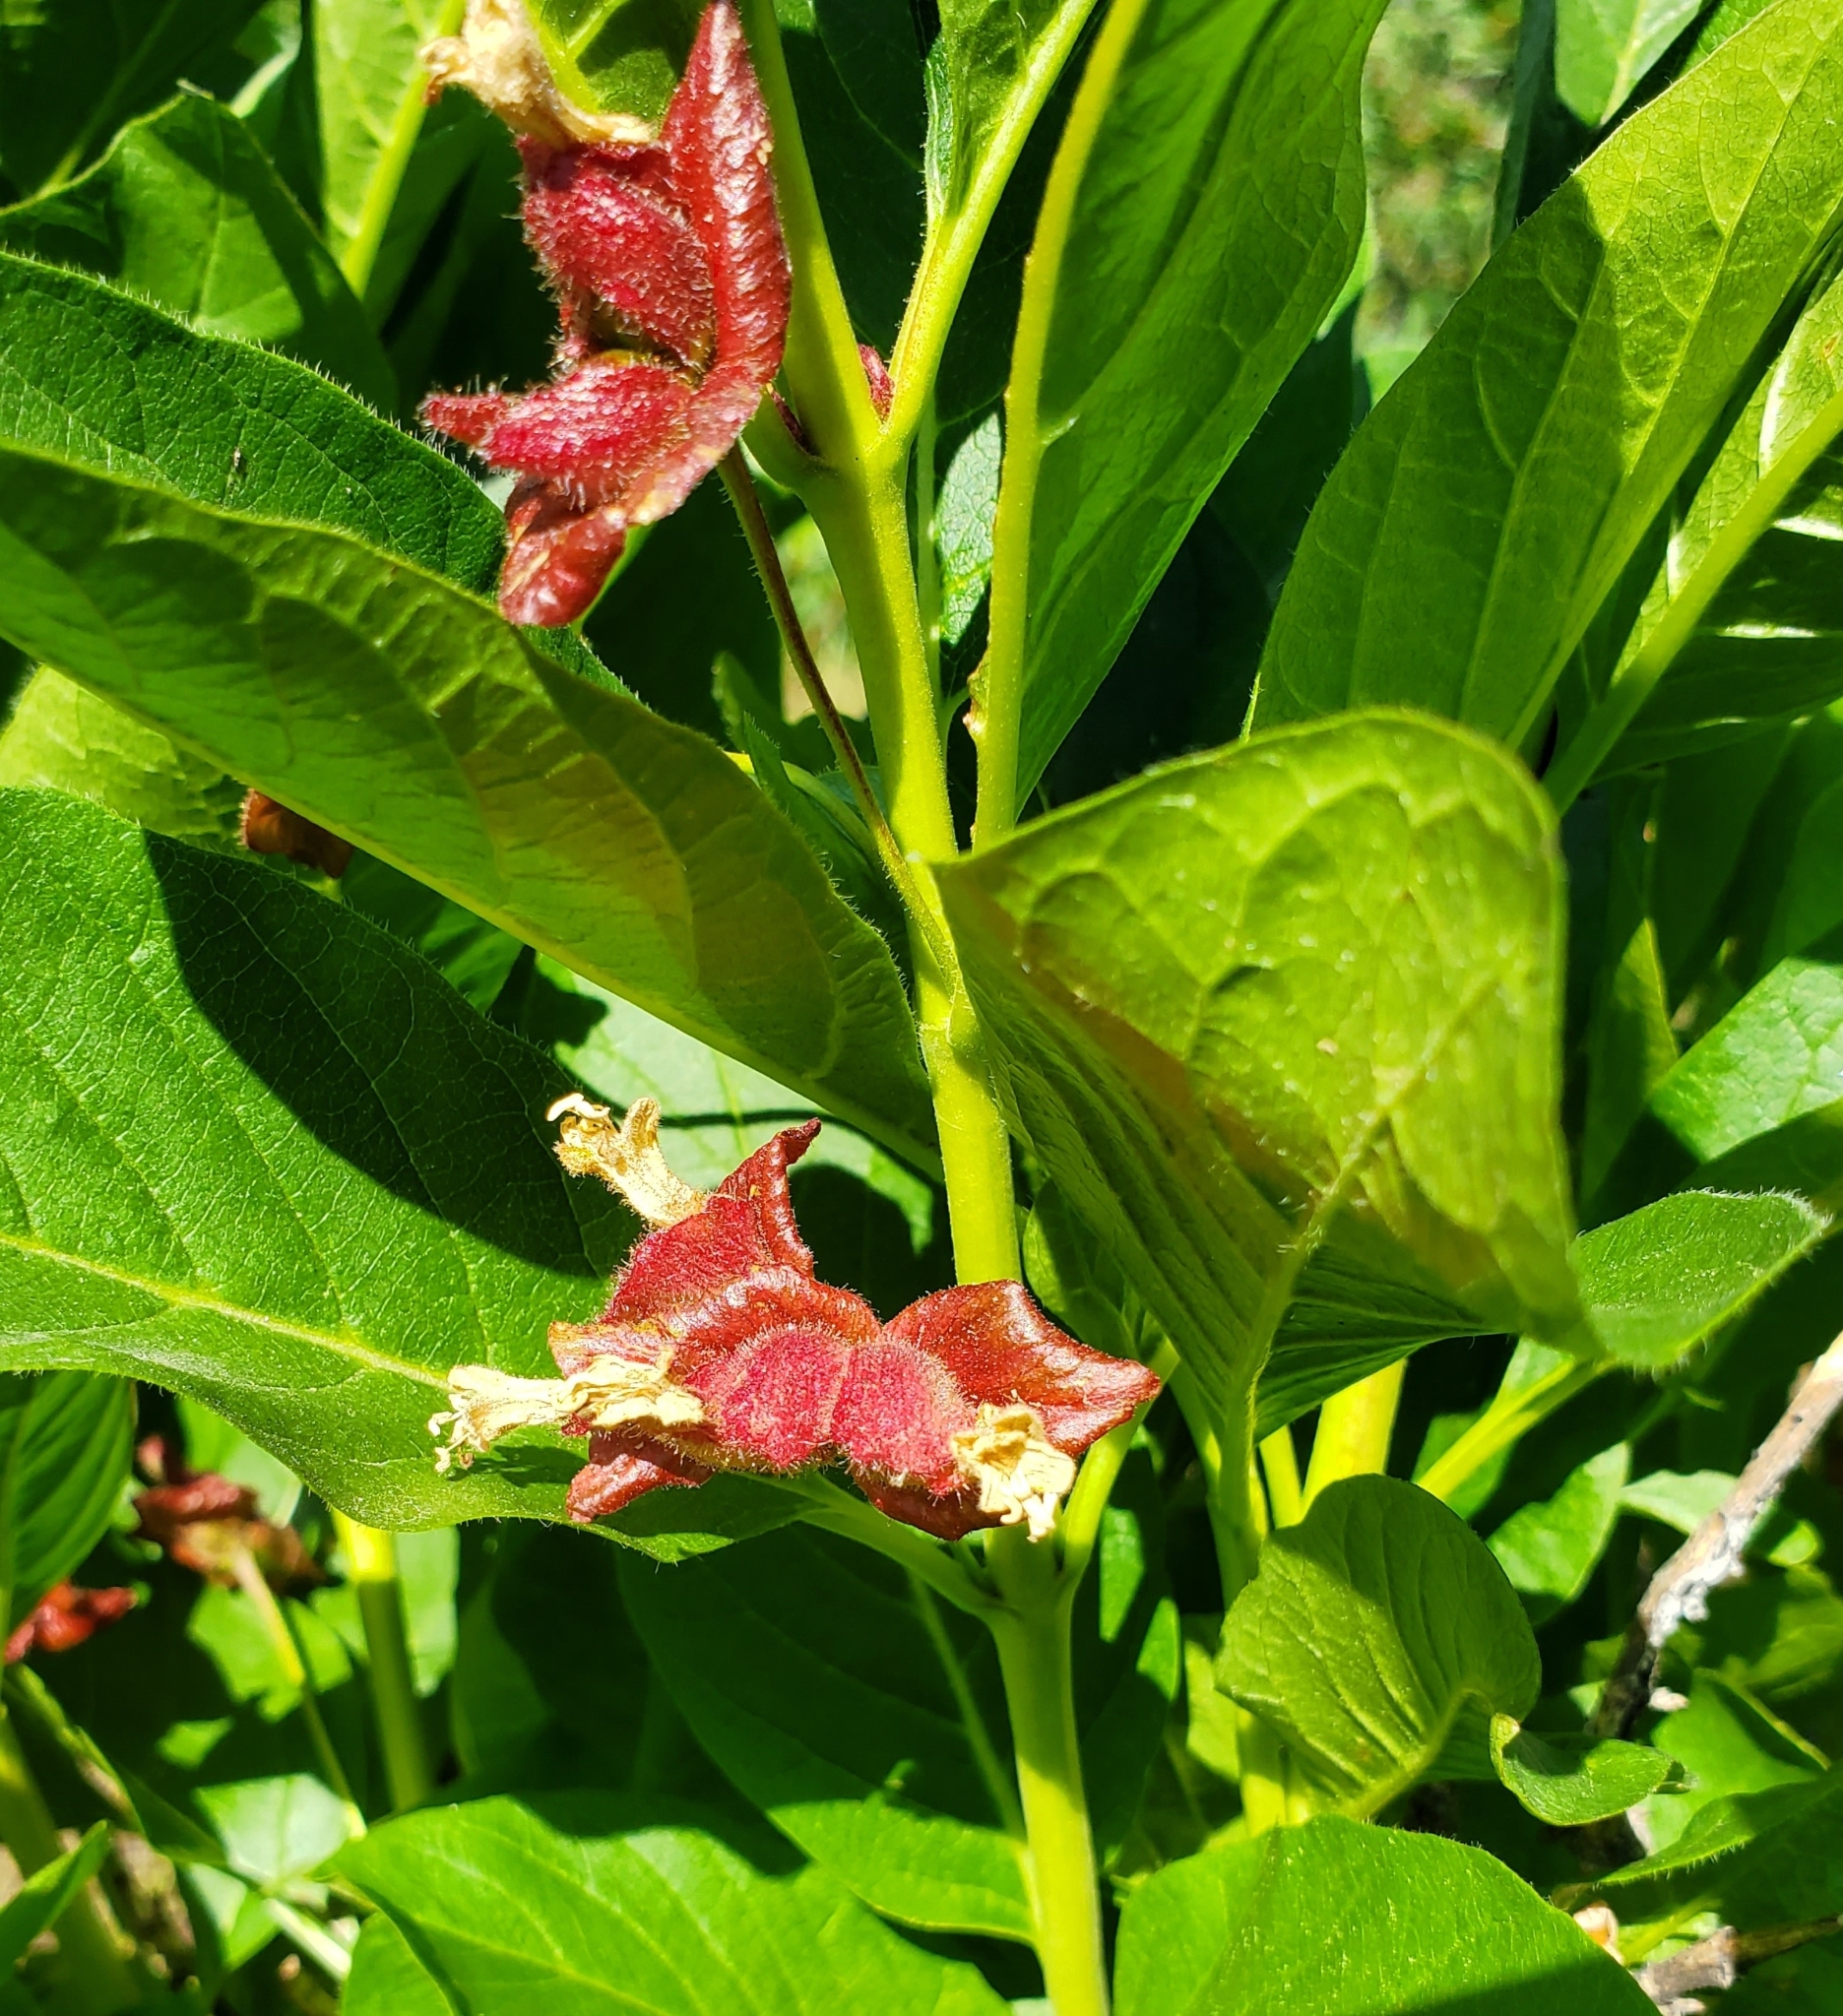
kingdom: Plantae
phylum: Tracheophyta
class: Magnoliopsida
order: Dipsacales
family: Caprifoliaceae
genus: Lonicera
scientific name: Lonicera involucrata
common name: Californian honeysuckle
